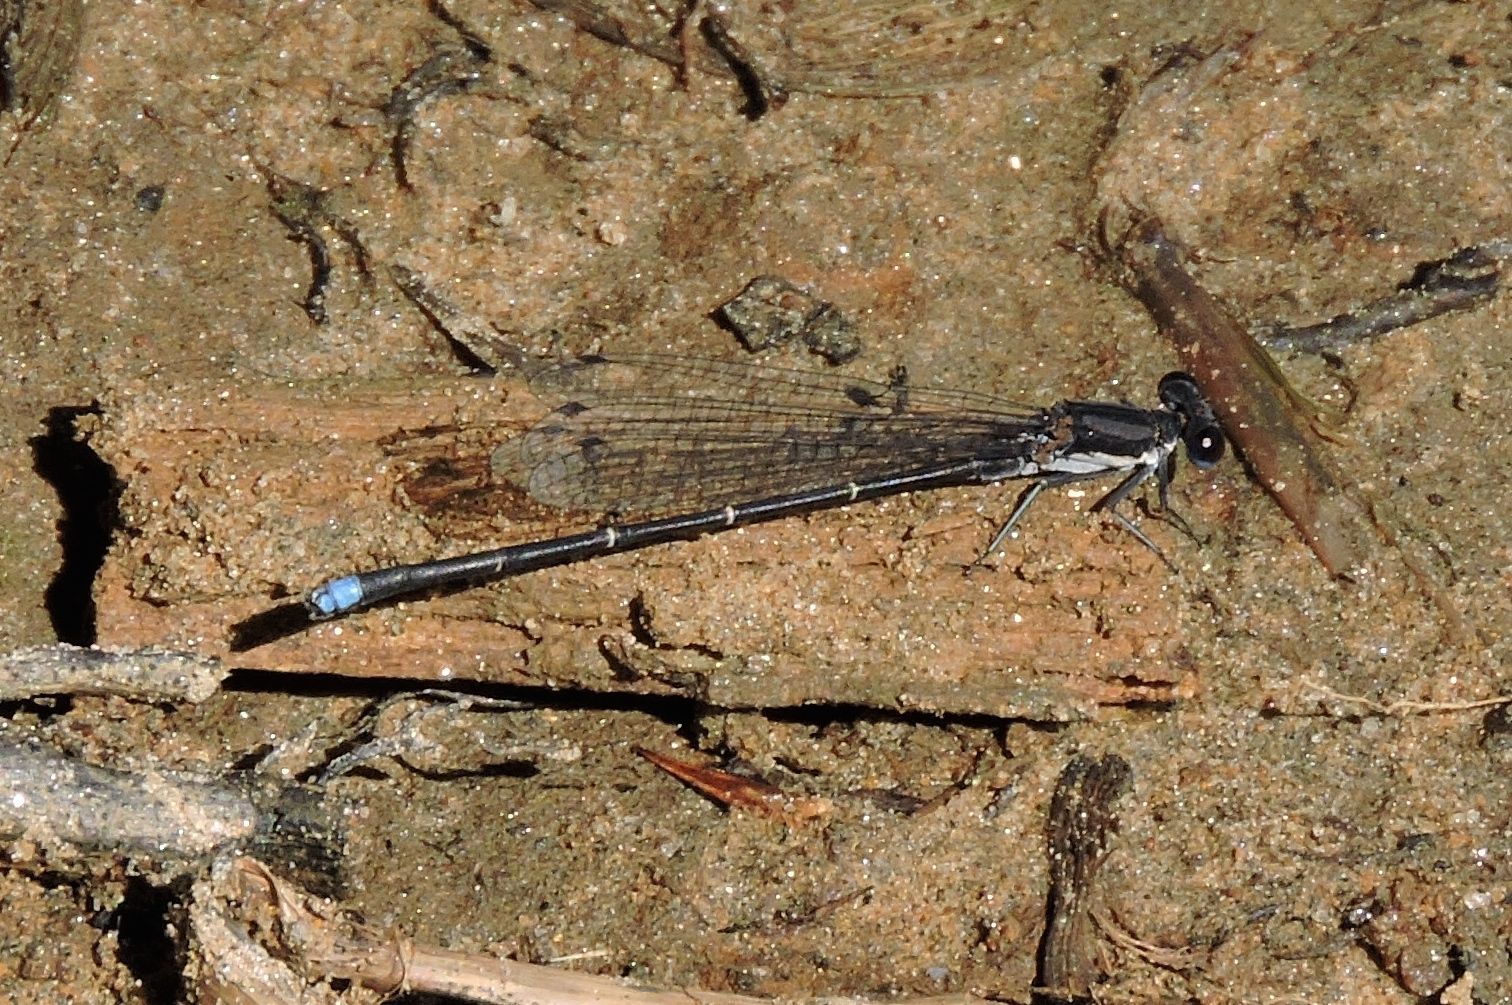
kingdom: Animalia
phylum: Arthropoda
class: Insecta
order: Odonata
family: Coenagrionidae
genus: Argia
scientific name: Argia tibialis
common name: Blue-tipped dancer
